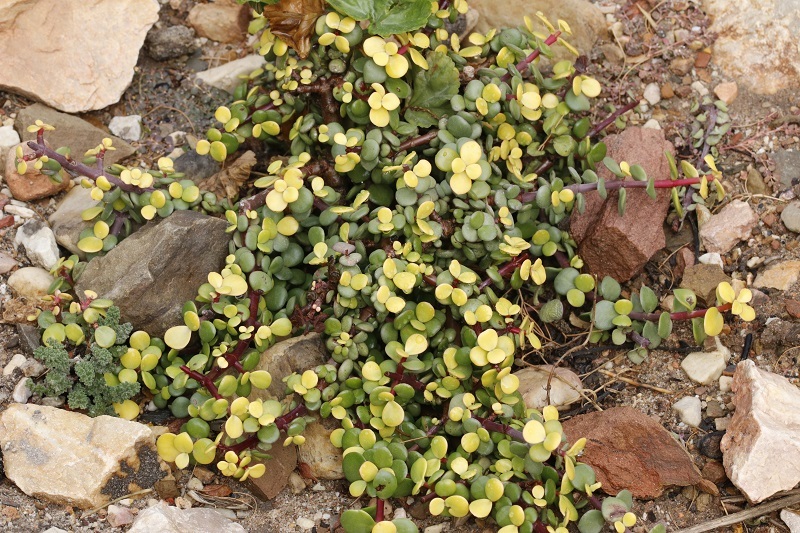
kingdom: Plantae
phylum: Tracheophyta
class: Magnoliopsida
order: Caryophyllales
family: Didiereaceae
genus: Portulacaria
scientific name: Portulacaria afra
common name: Elephant-bush
